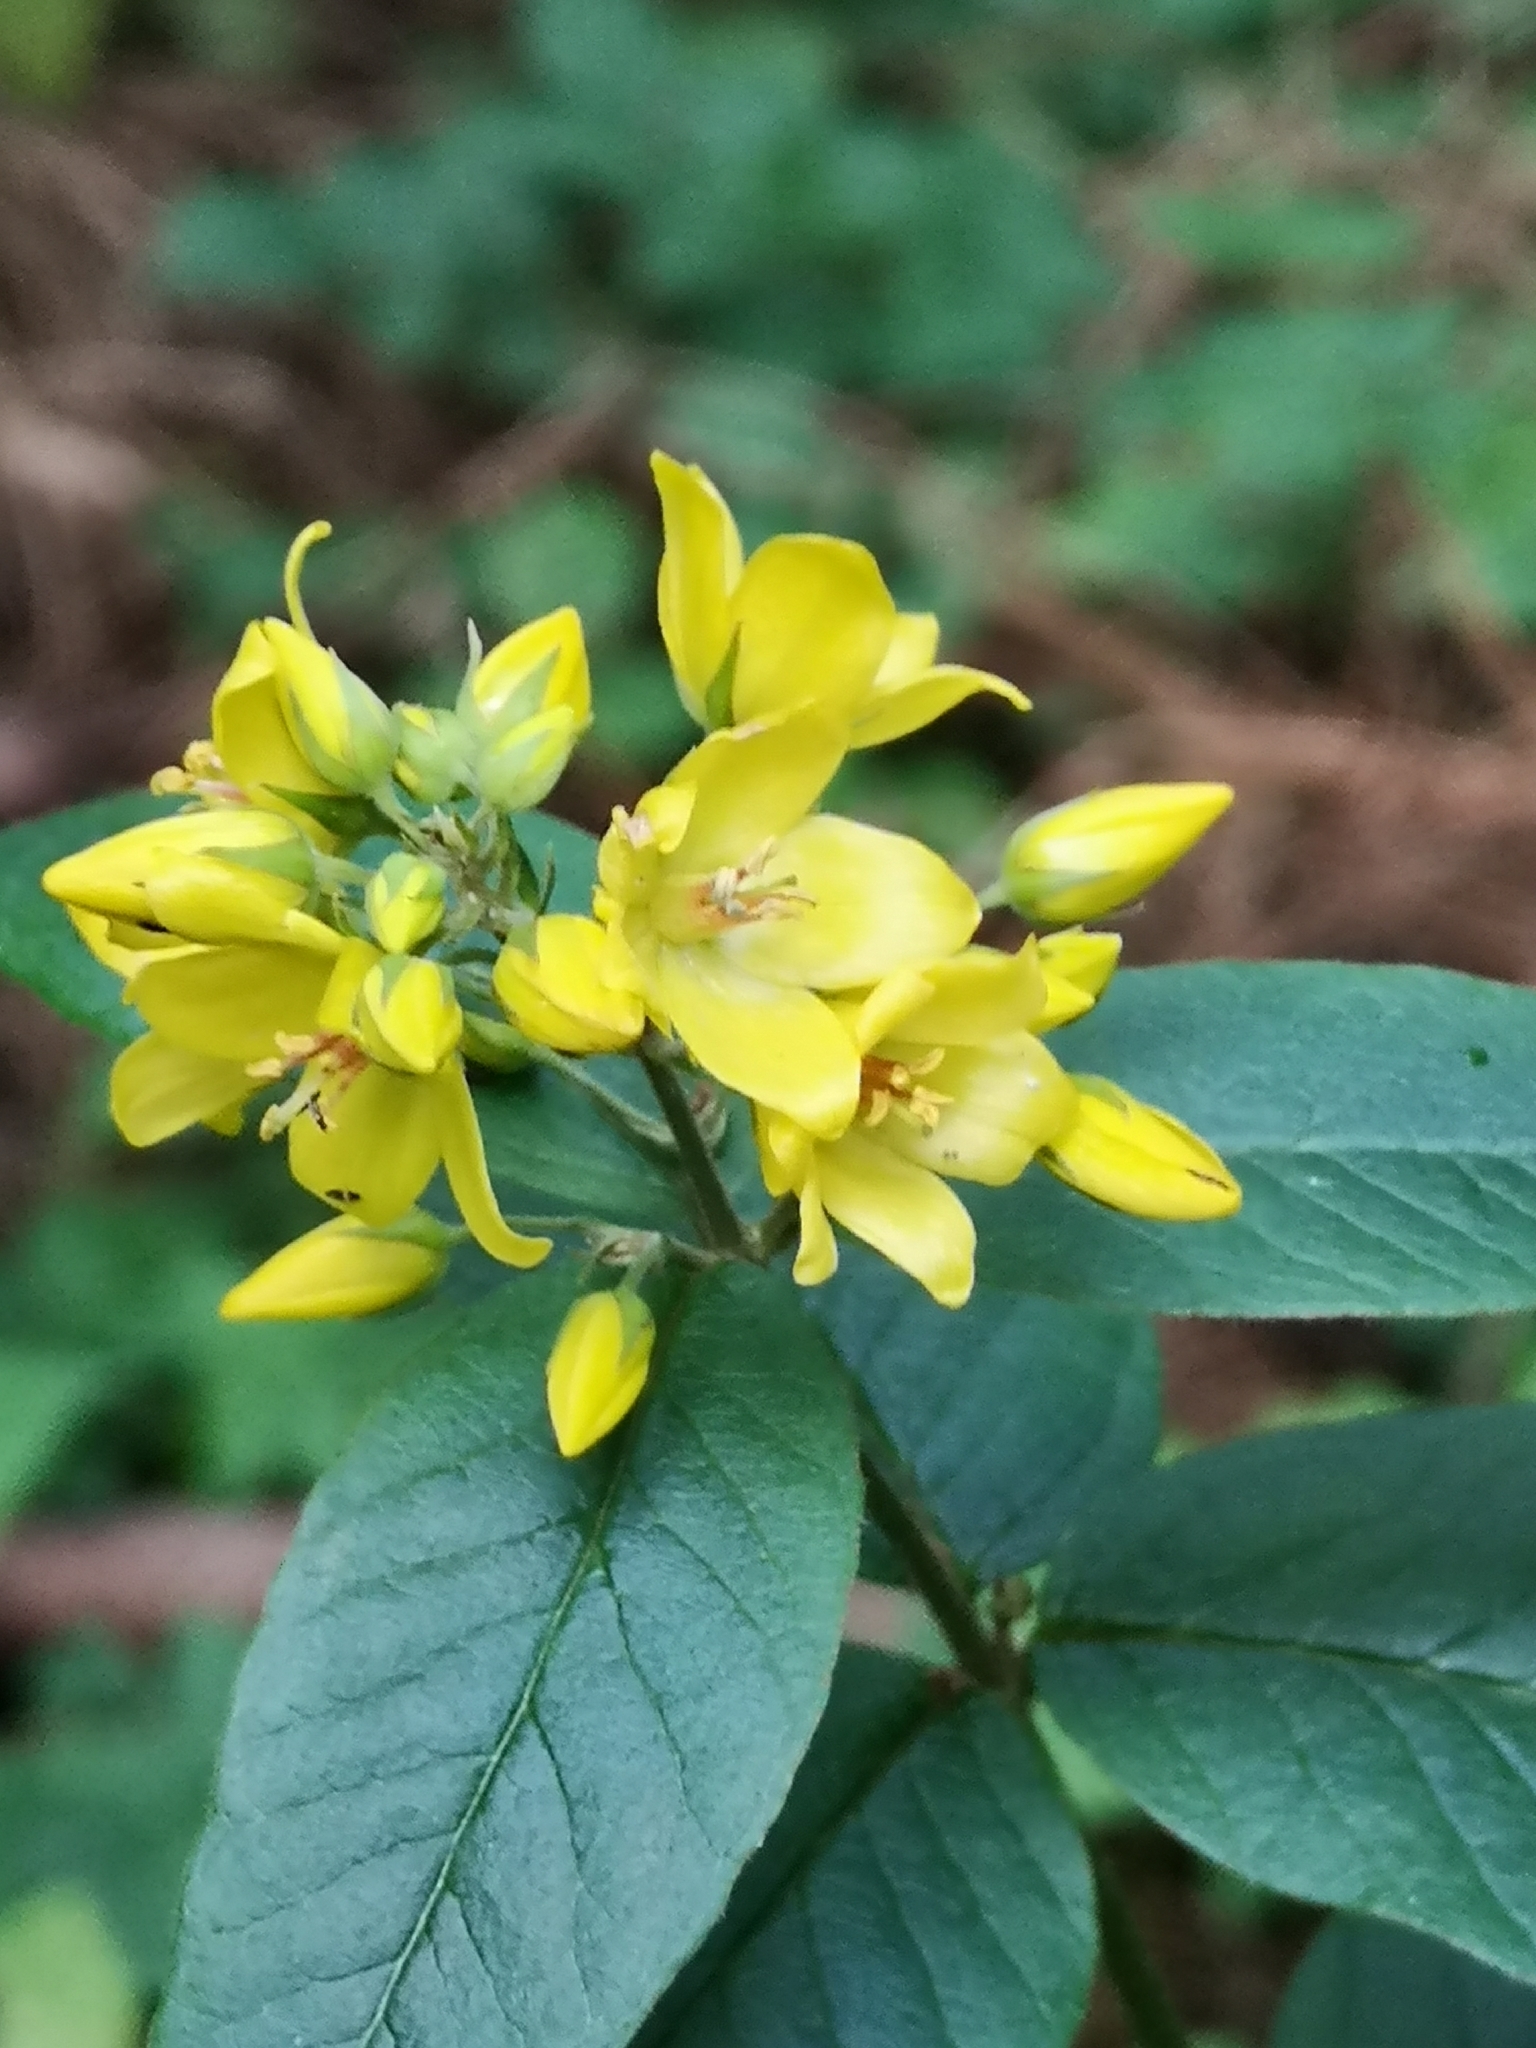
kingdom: Plantae
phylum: Tracheophyta
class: Magnoliopsida
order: Ericales
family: Primulaceae
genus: Lysimachia
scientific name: Lysimachia vulgaris
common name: Yellow loosestrife
